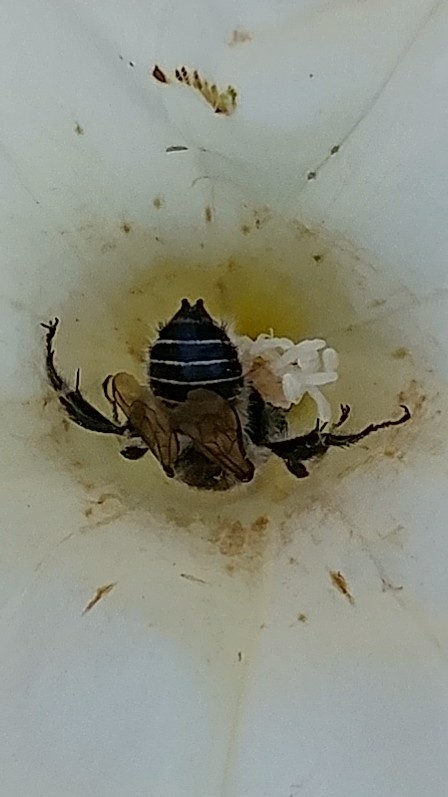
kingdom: Animalia
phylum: Arthropoda
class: Insecta
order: Hymenoptera
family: Apidae
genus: Diadasia
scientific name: Diadasia bituberculata
